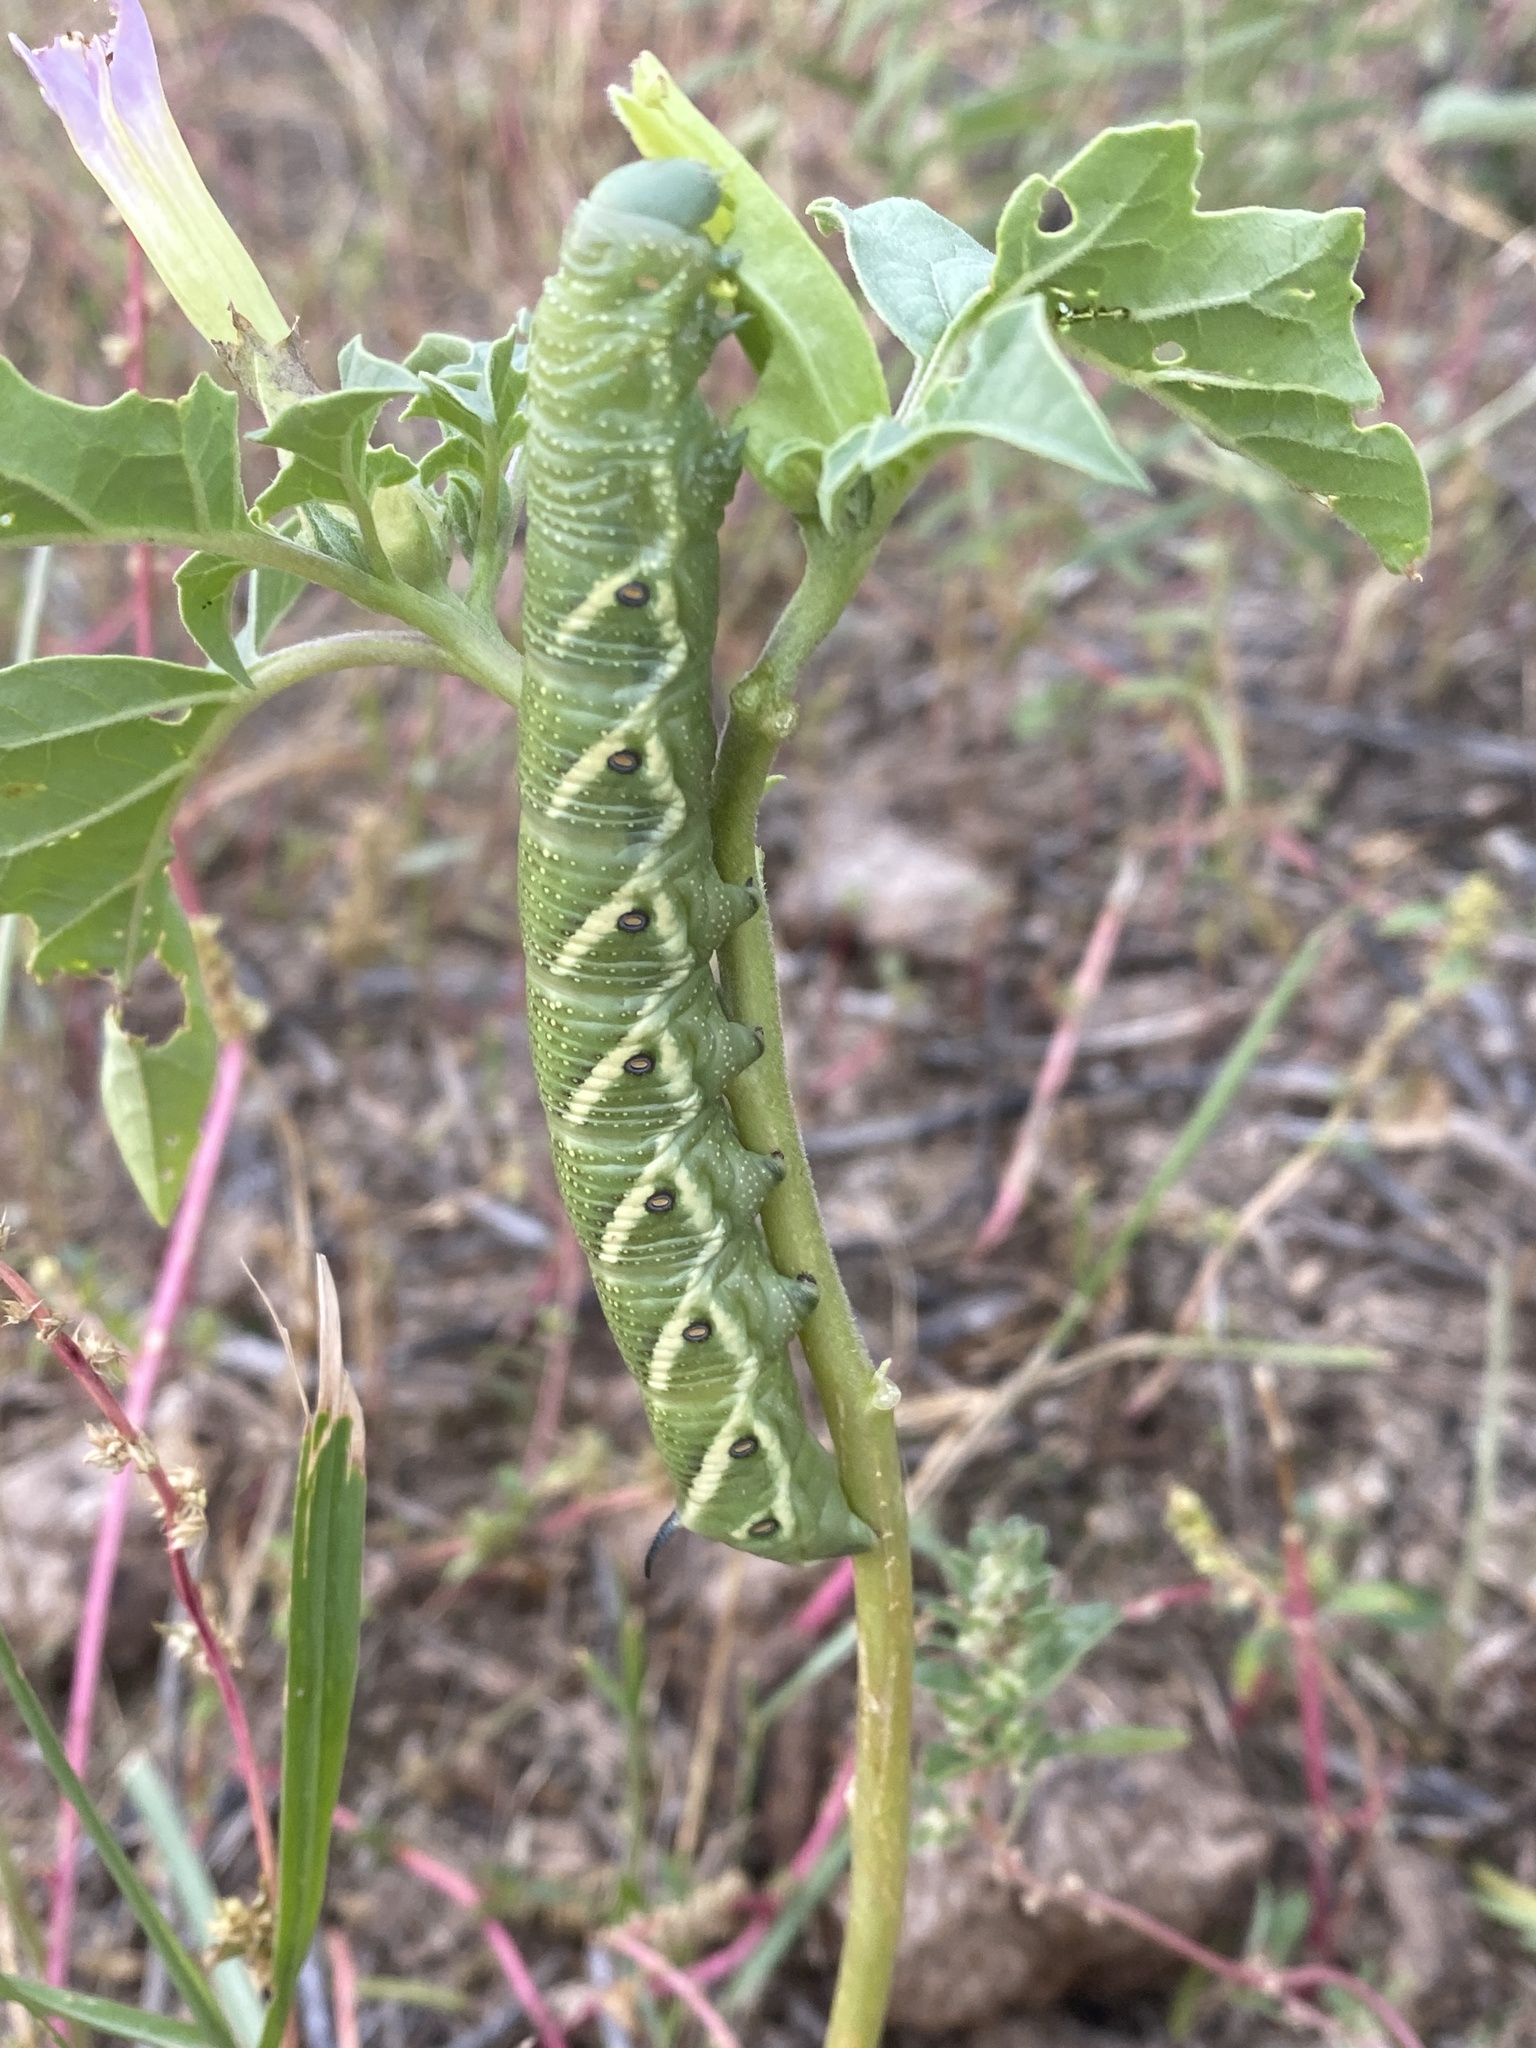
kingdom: Animalia
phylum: Arthropoda
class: Insecta
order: Lepidoptera
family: Sphingidae
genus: Manduca
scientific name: Manduca quinquemaculatus
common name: Five-spotted hawk-moth
